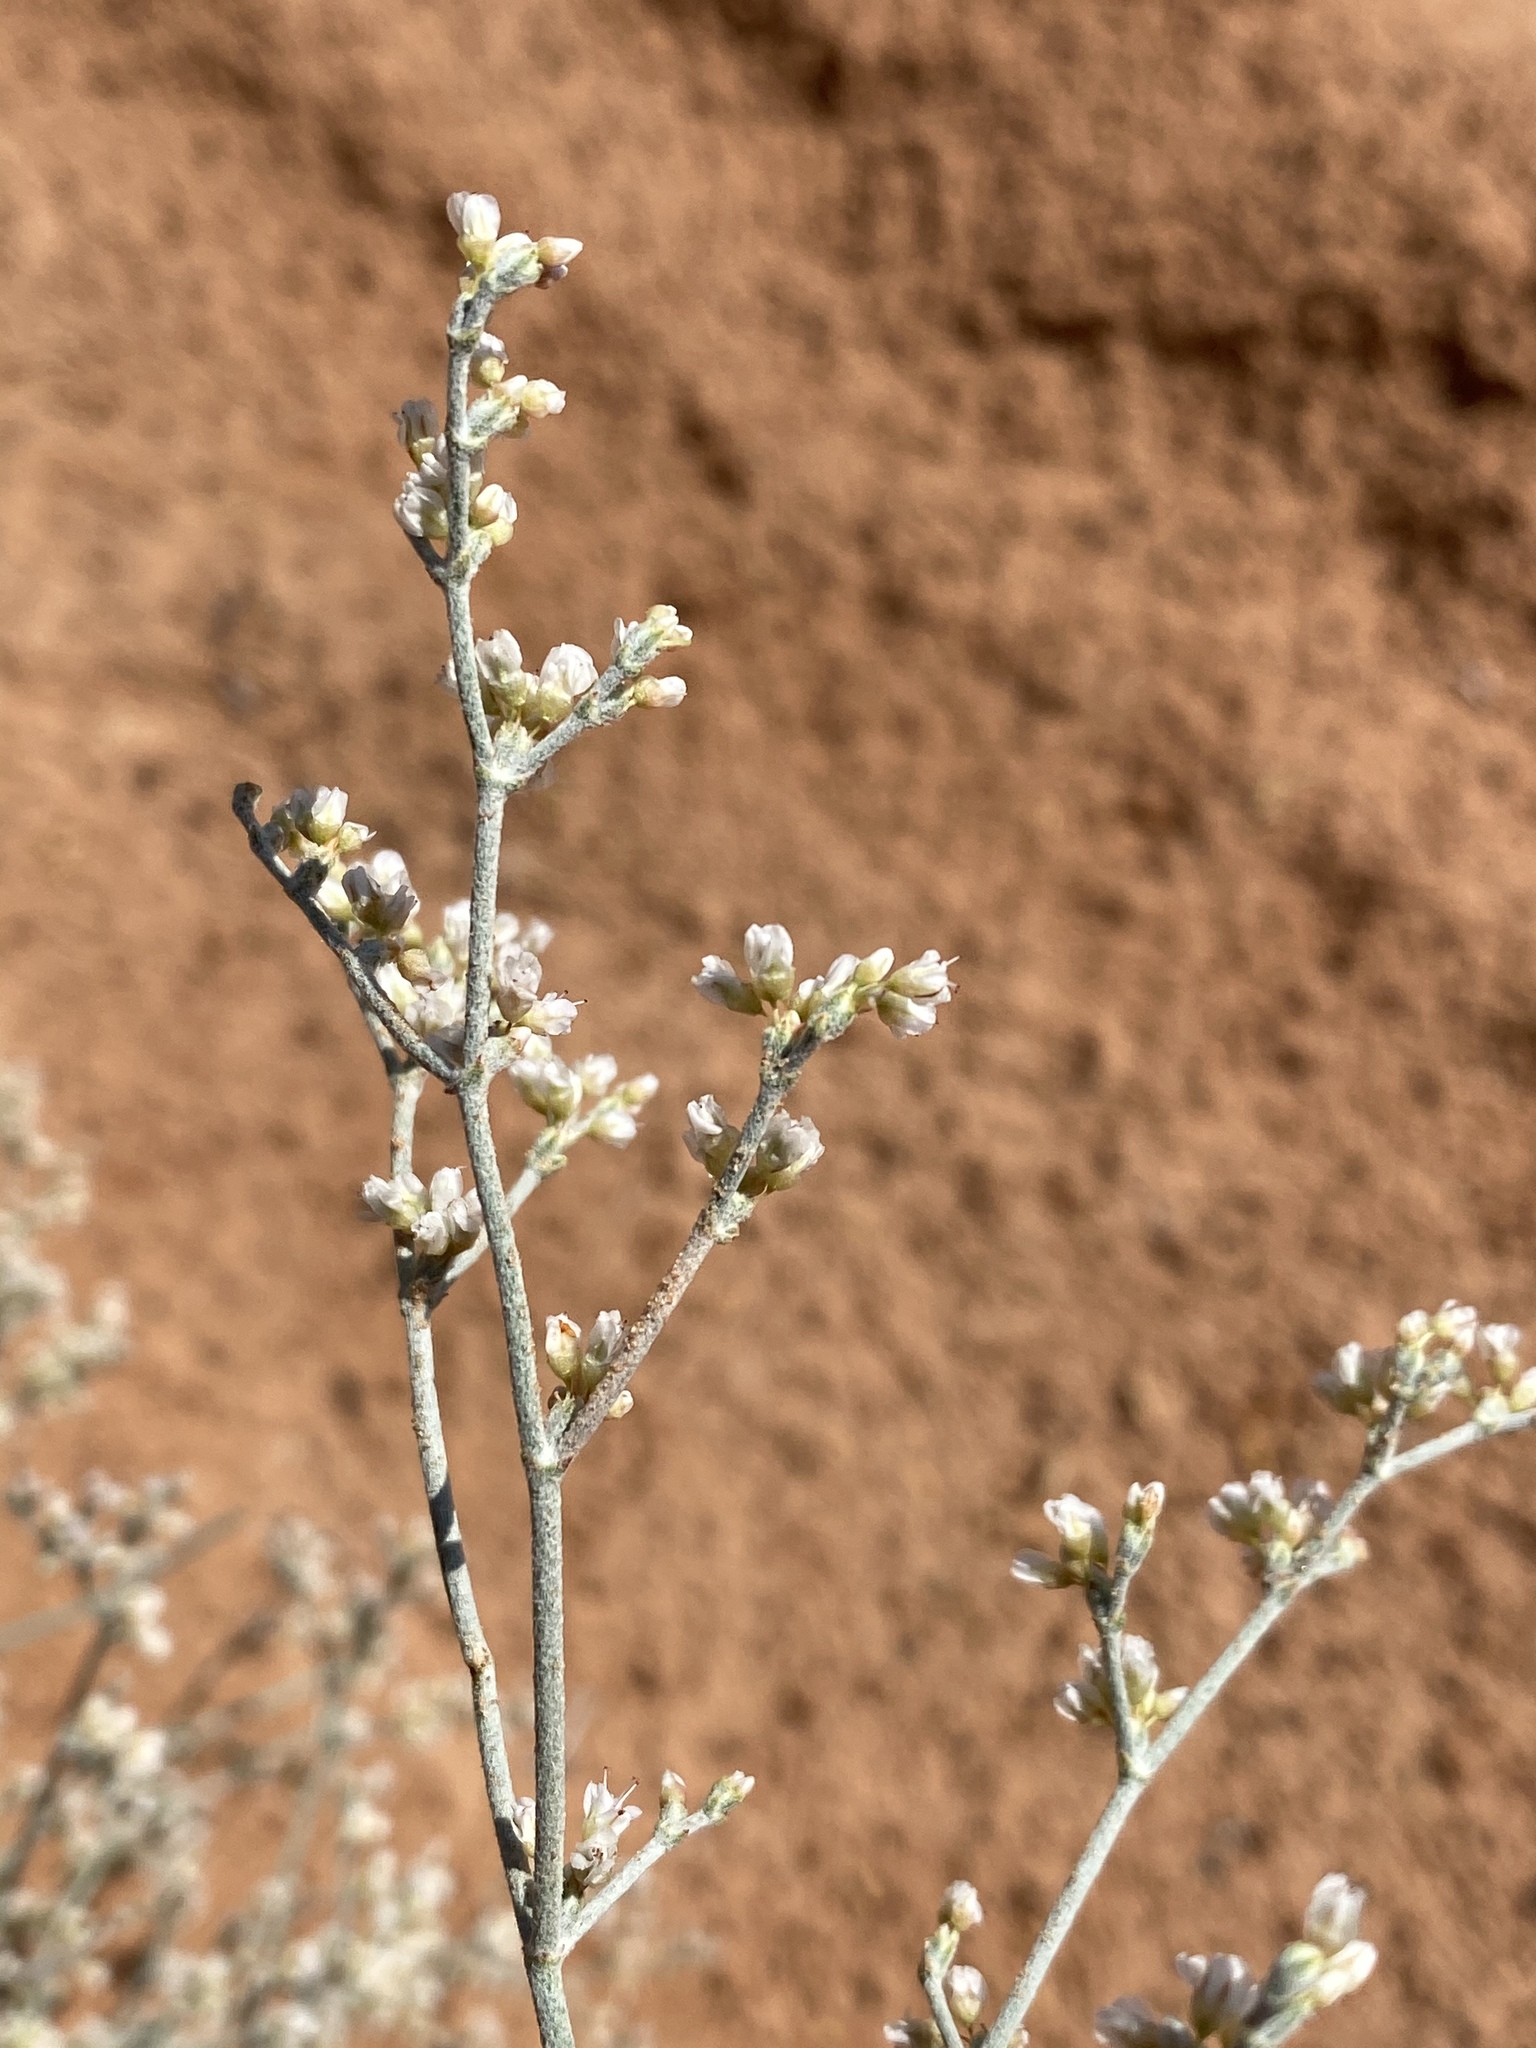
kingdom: Plantae
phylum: Tracheophyta
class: Magnoliopsida
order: Caryophyllales
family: Polygonaceae
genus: Eriogonum
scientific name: Eriogonum nummulare
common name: Kearney wild buckwheat
